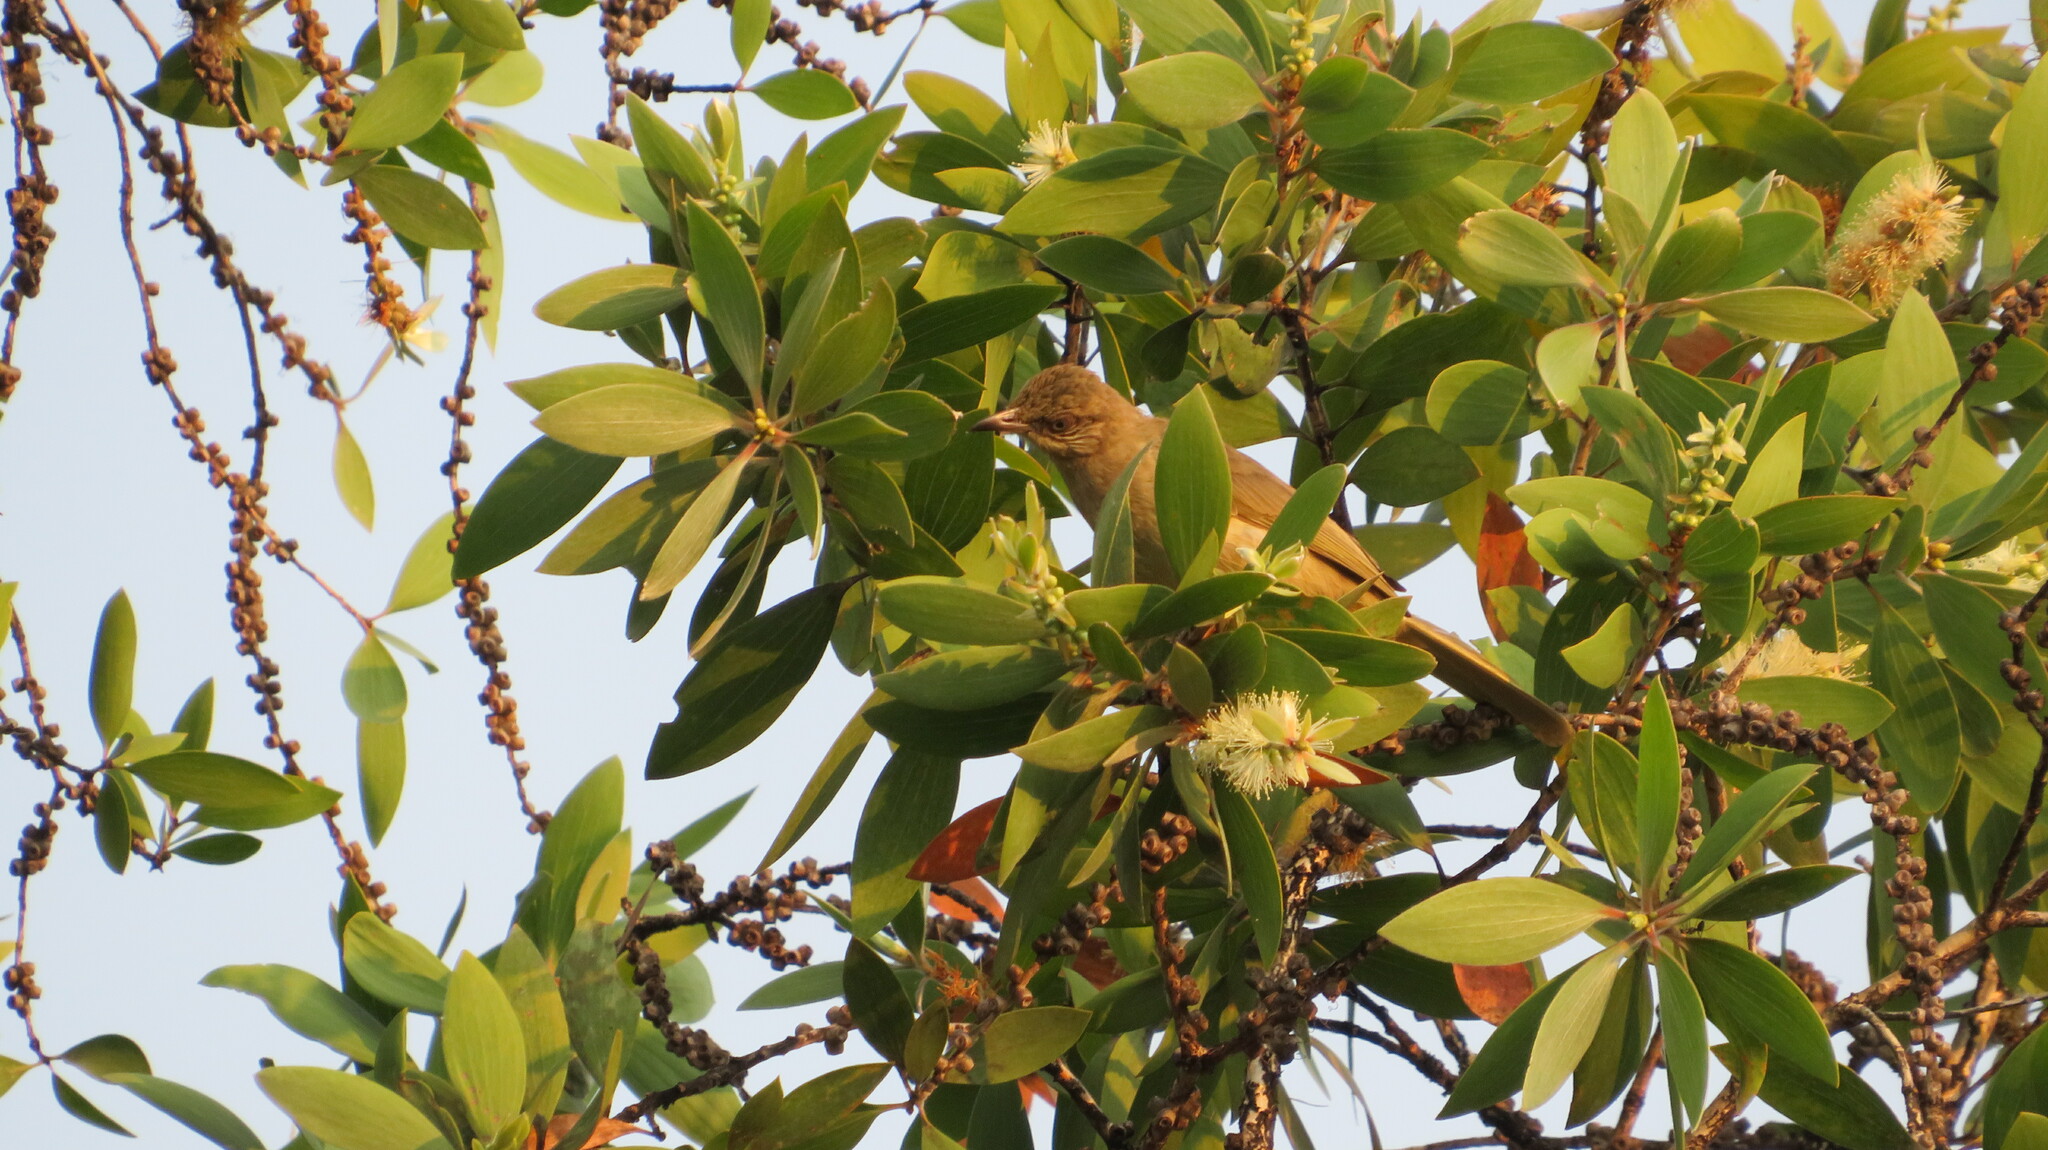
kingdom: Animalia
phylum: Chordata
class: Aves
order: Passeriformes
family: Pycnonotidae
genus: Pycnonotus
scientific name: Pycnonotus blanfordi
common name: Streak-eared bulbul
